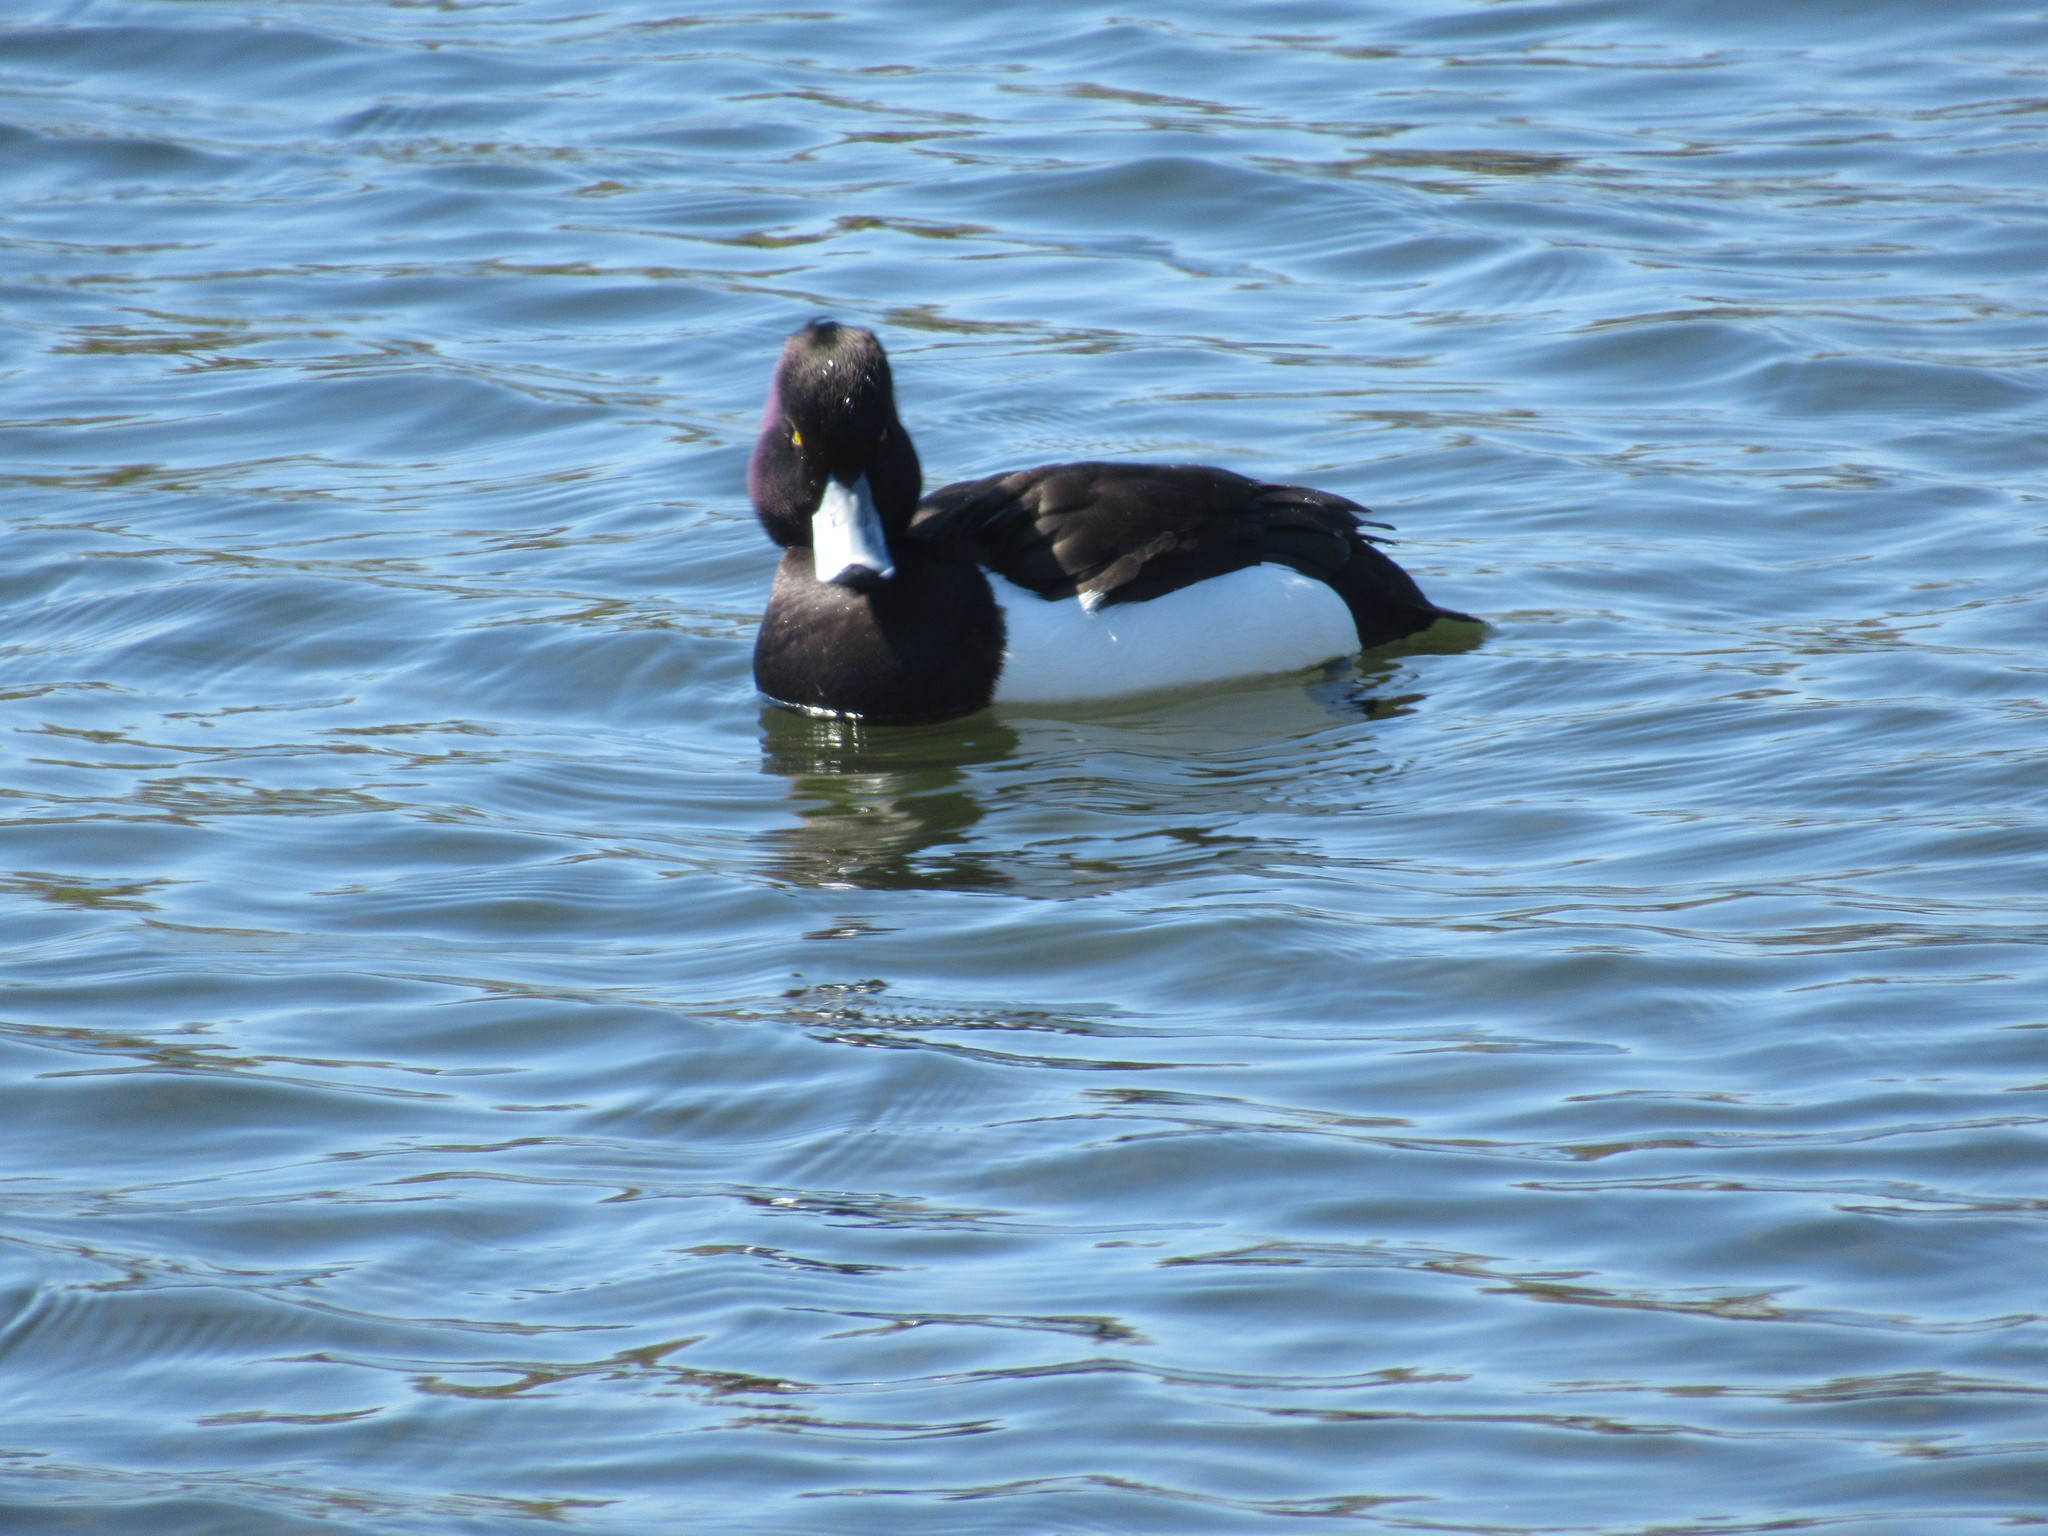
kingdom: Animalia
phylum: Chordata
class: Aves
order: Anseriformes
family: Anatidae
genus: Aythya
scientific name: Aythya fuligula
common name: Tufted duck
